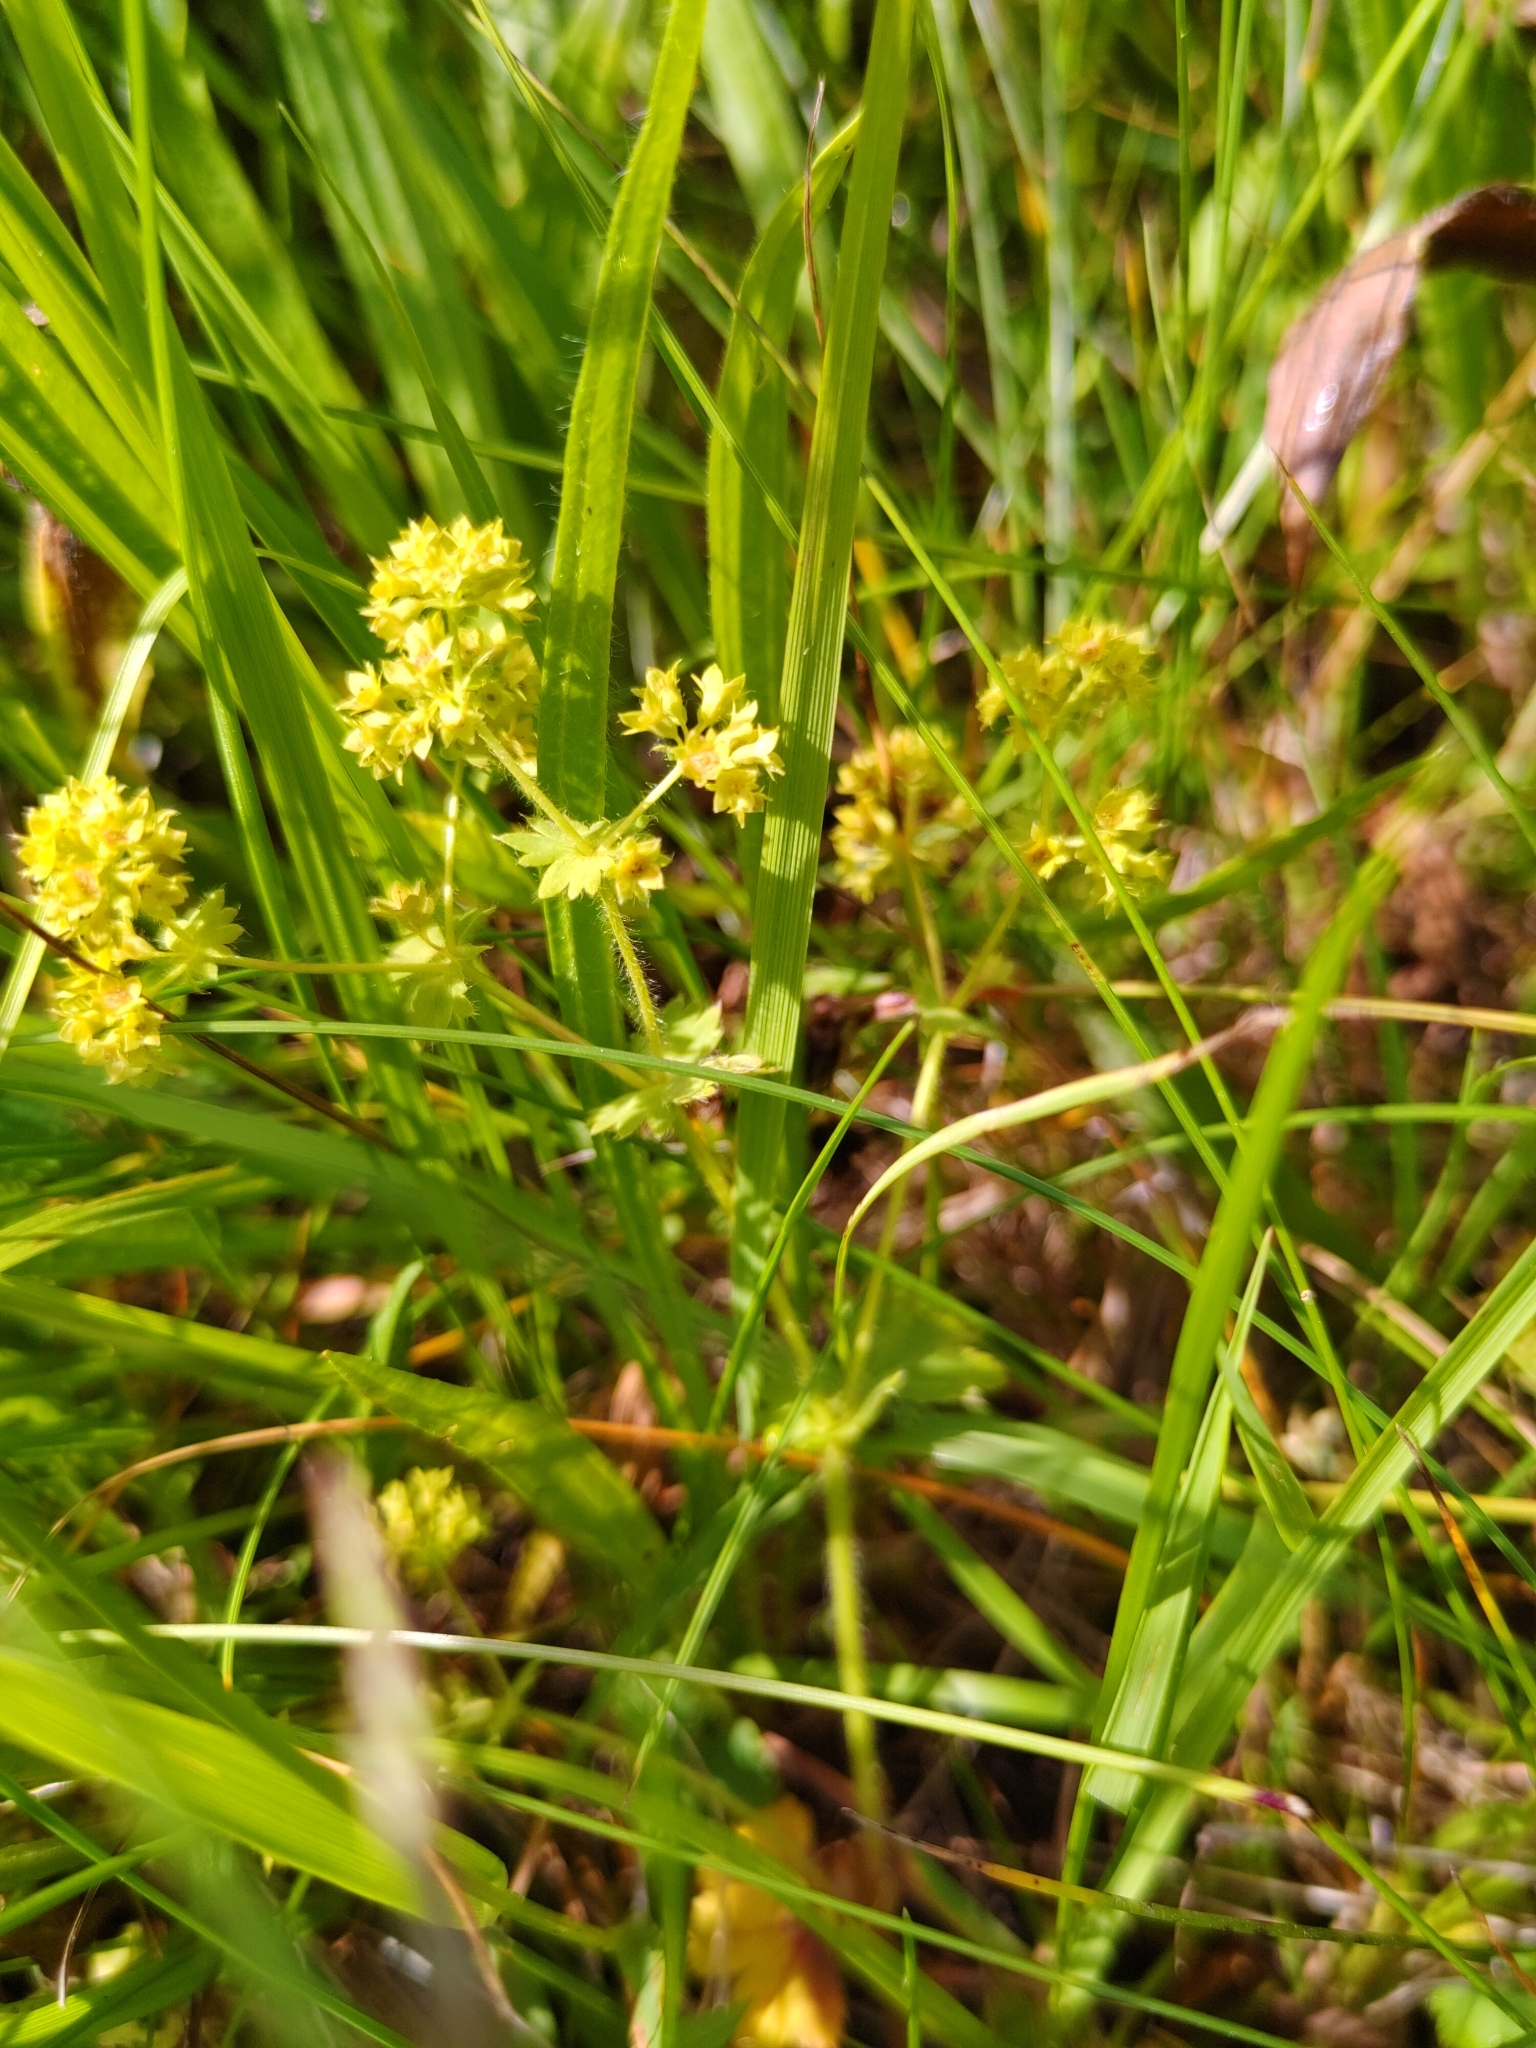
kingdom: Plantae
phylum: Tracheophyta
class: Magnoliopsida
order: Rosales
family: Rosaceae
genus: Alchemilla
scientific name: Alchemilla monticola
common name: Hairy lady's mantle
